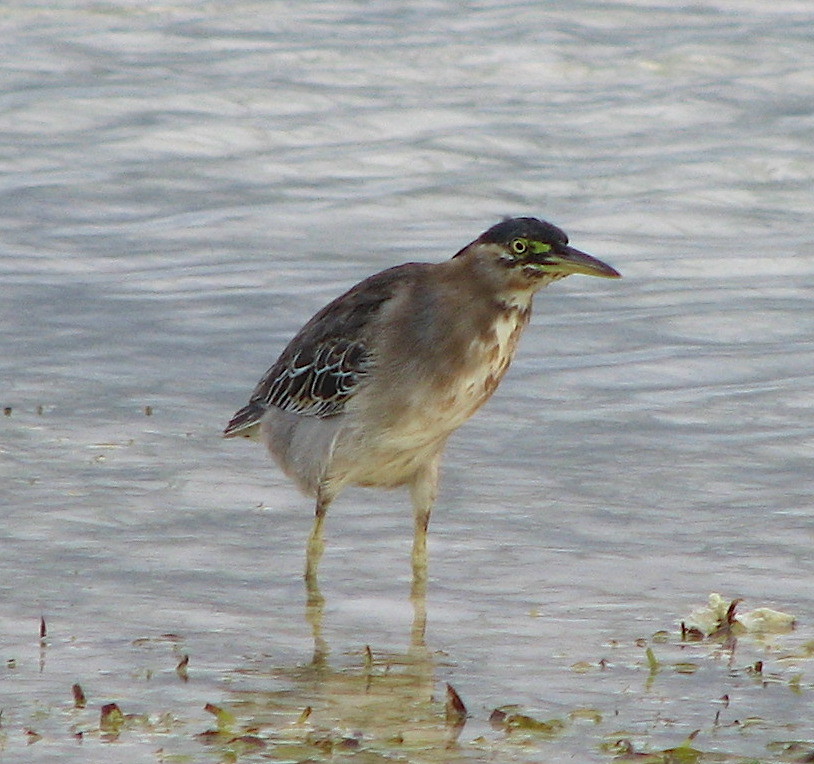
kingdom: Animalia
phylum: Chordata
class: Aves
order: Pelecaniformes
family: Ardeidae
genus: Butorides
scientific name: Butorides striata
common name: Striated heron
